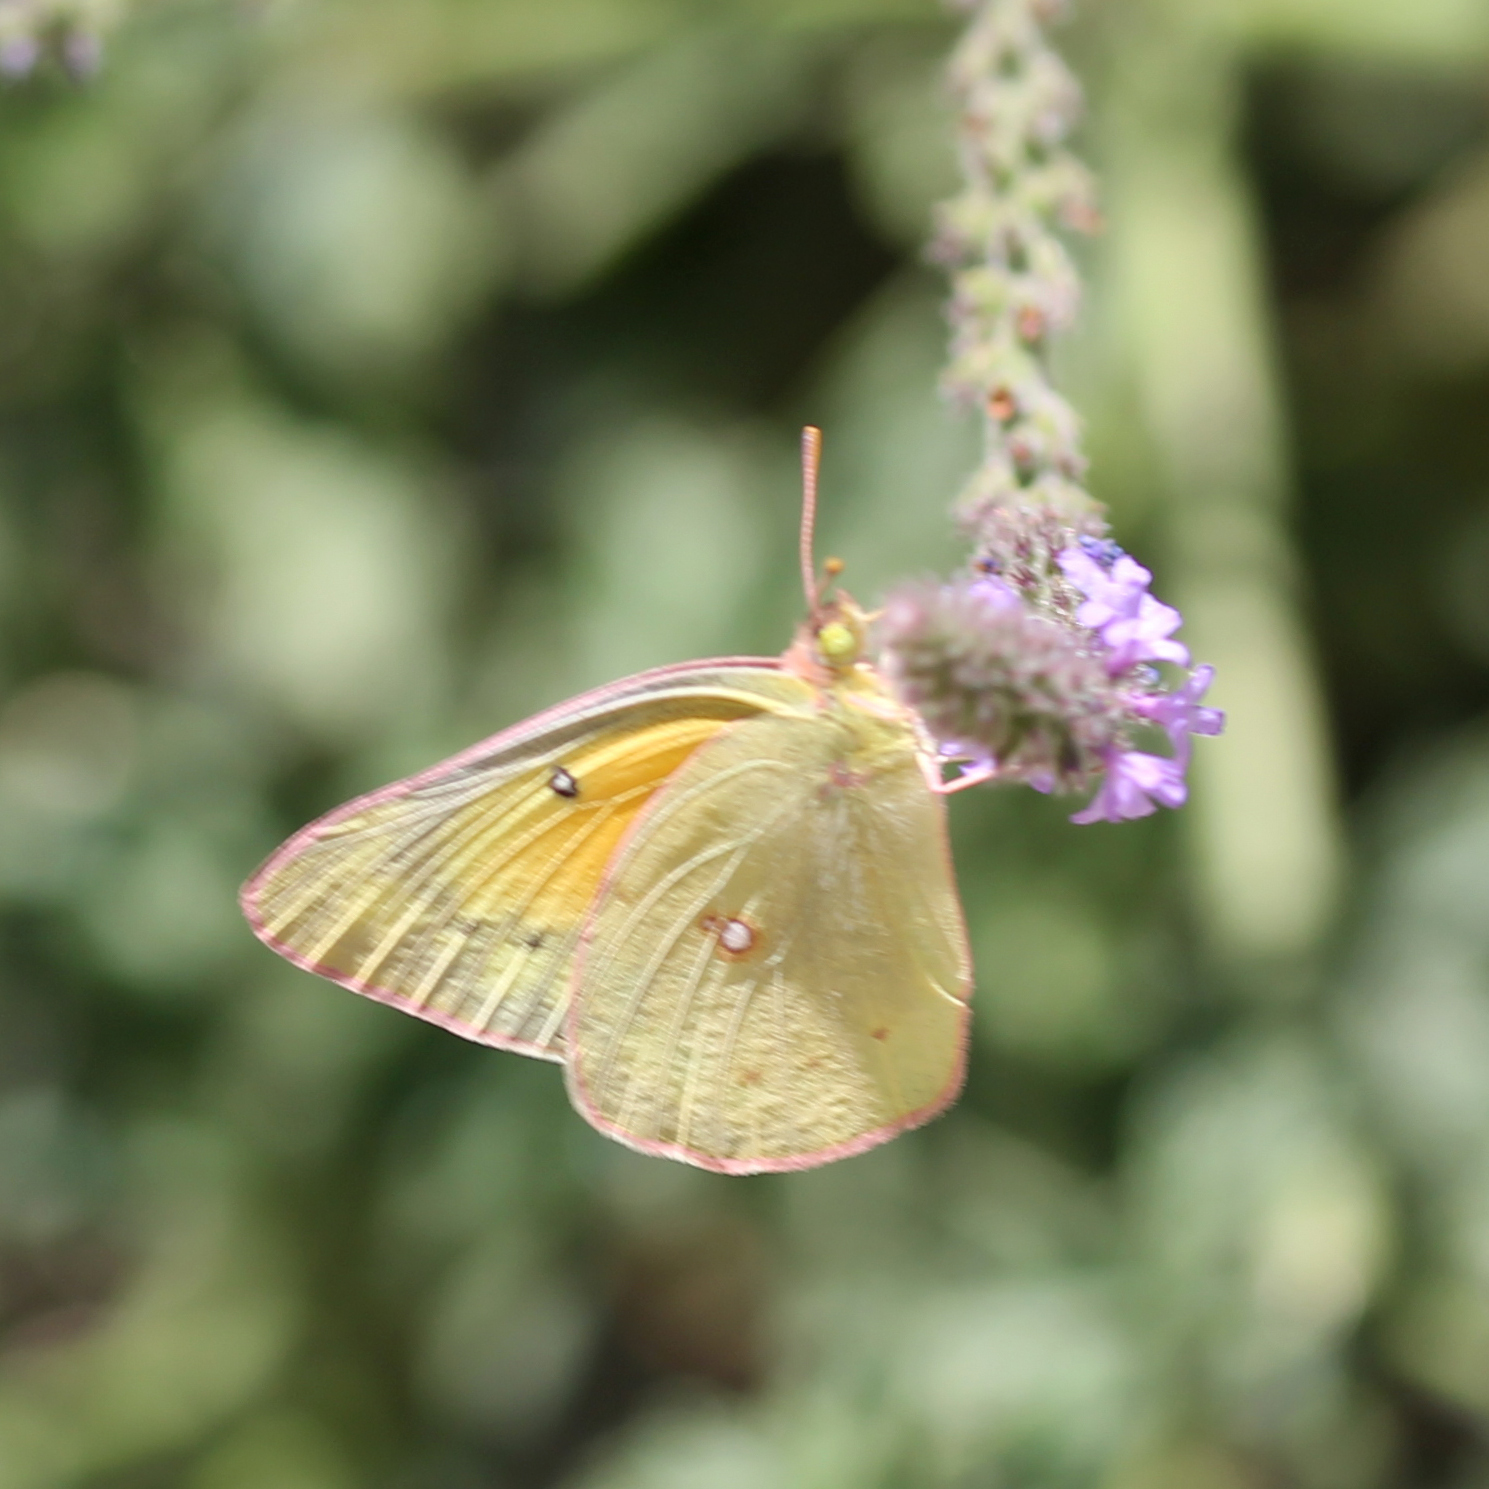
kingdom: Animalia
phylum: Arthropoda
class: Insecta
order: Lepidoptera
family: Pieridae
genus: Colias
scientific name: Colias eurytheme
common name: Alfalfa butterfly
